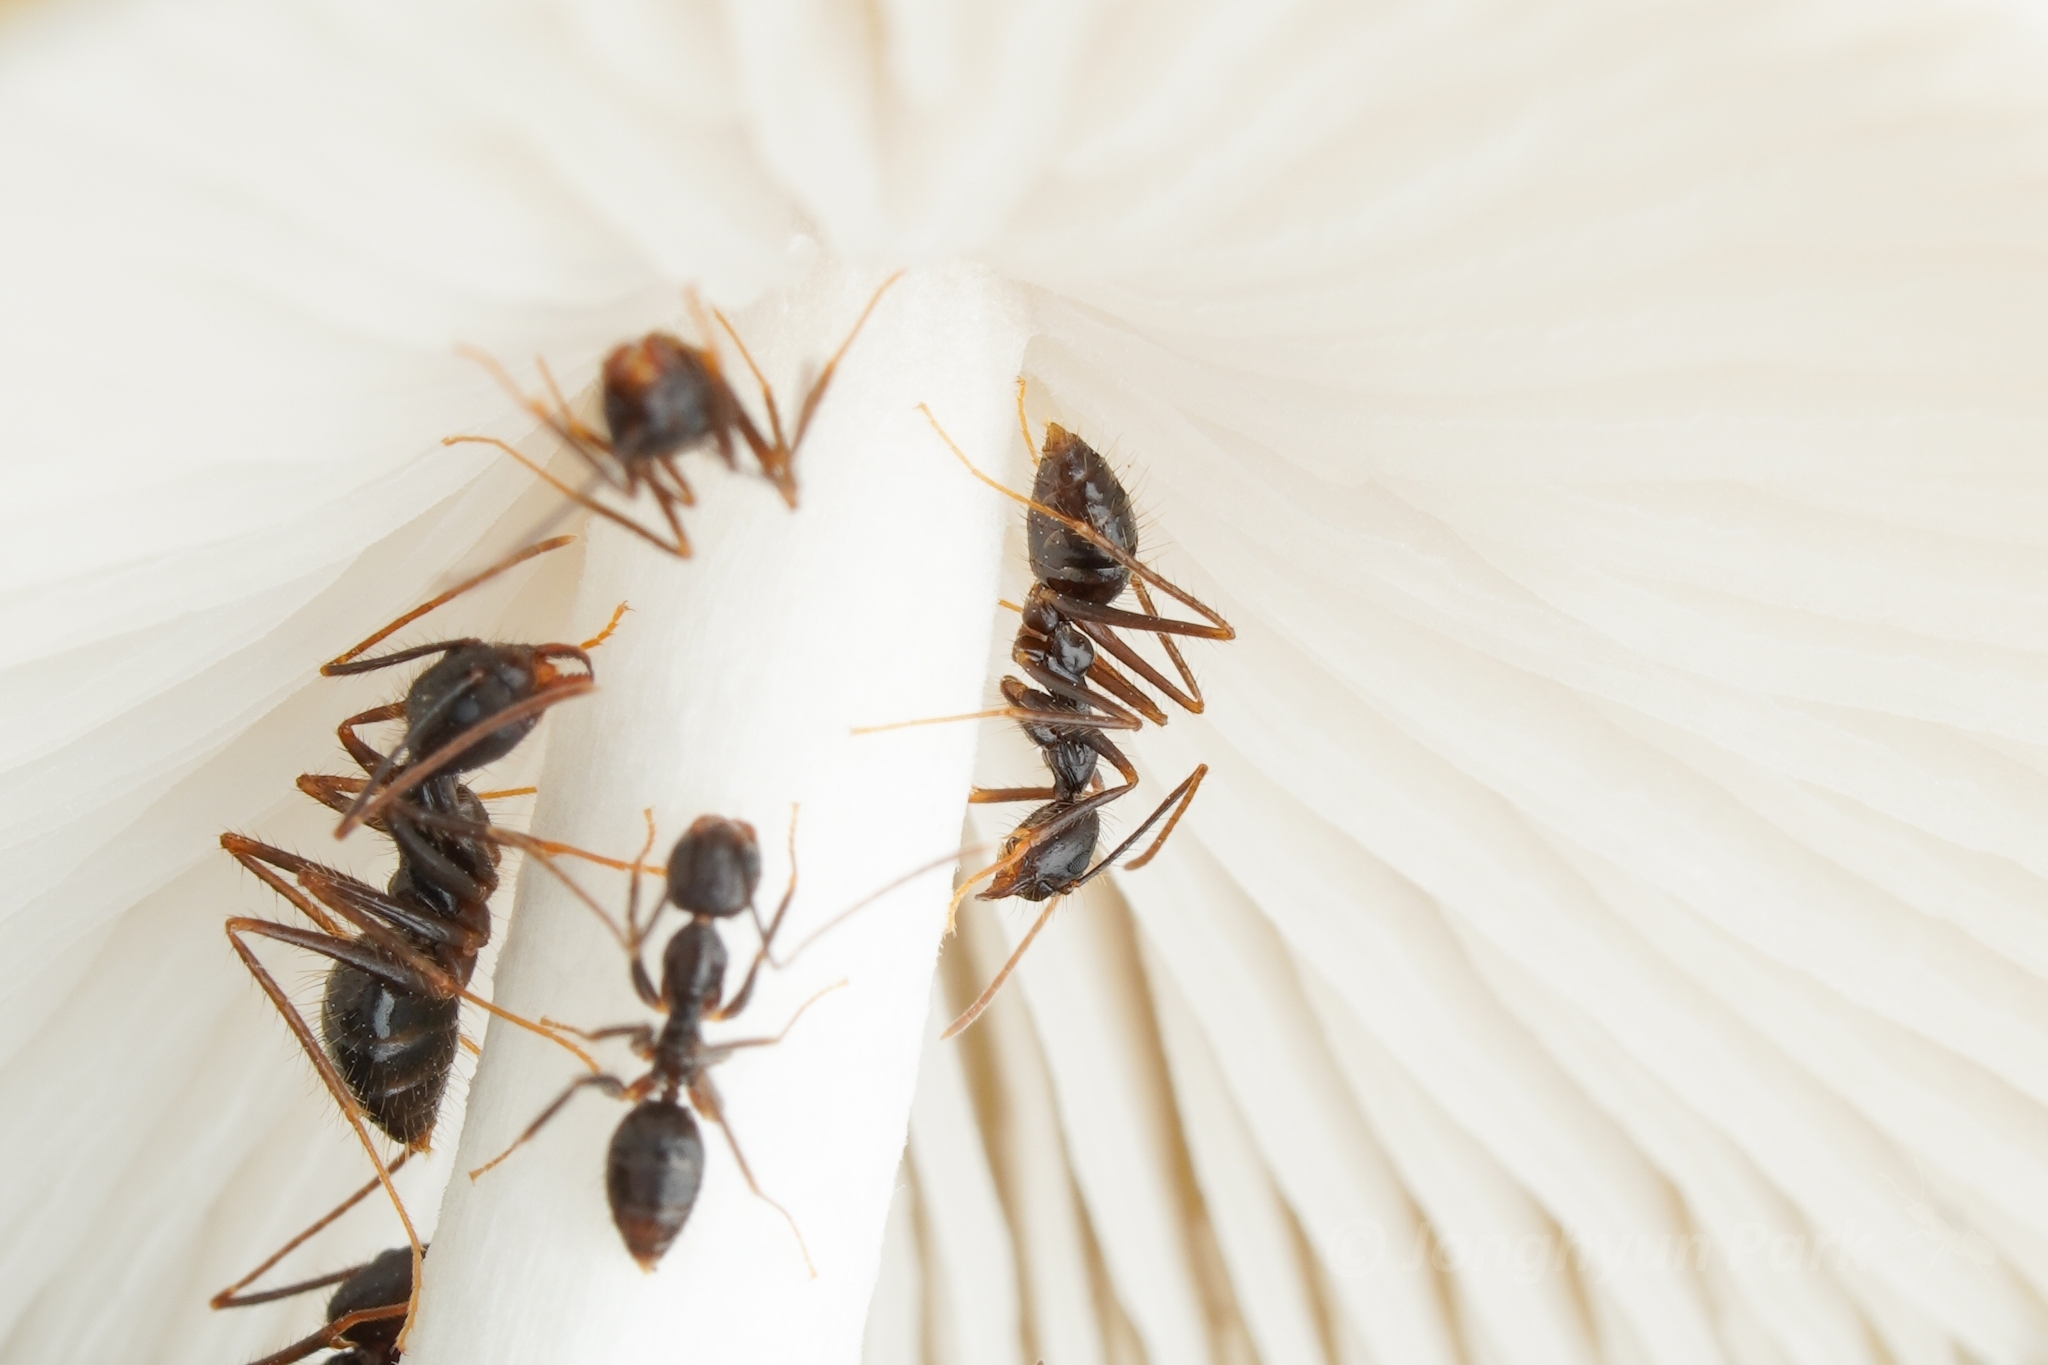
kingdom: Animalia
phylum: Arthropoda
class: Insecta
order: Hymenoptera
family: Formicidae
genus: Euprenolepis
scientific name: Euprenolepis procera
